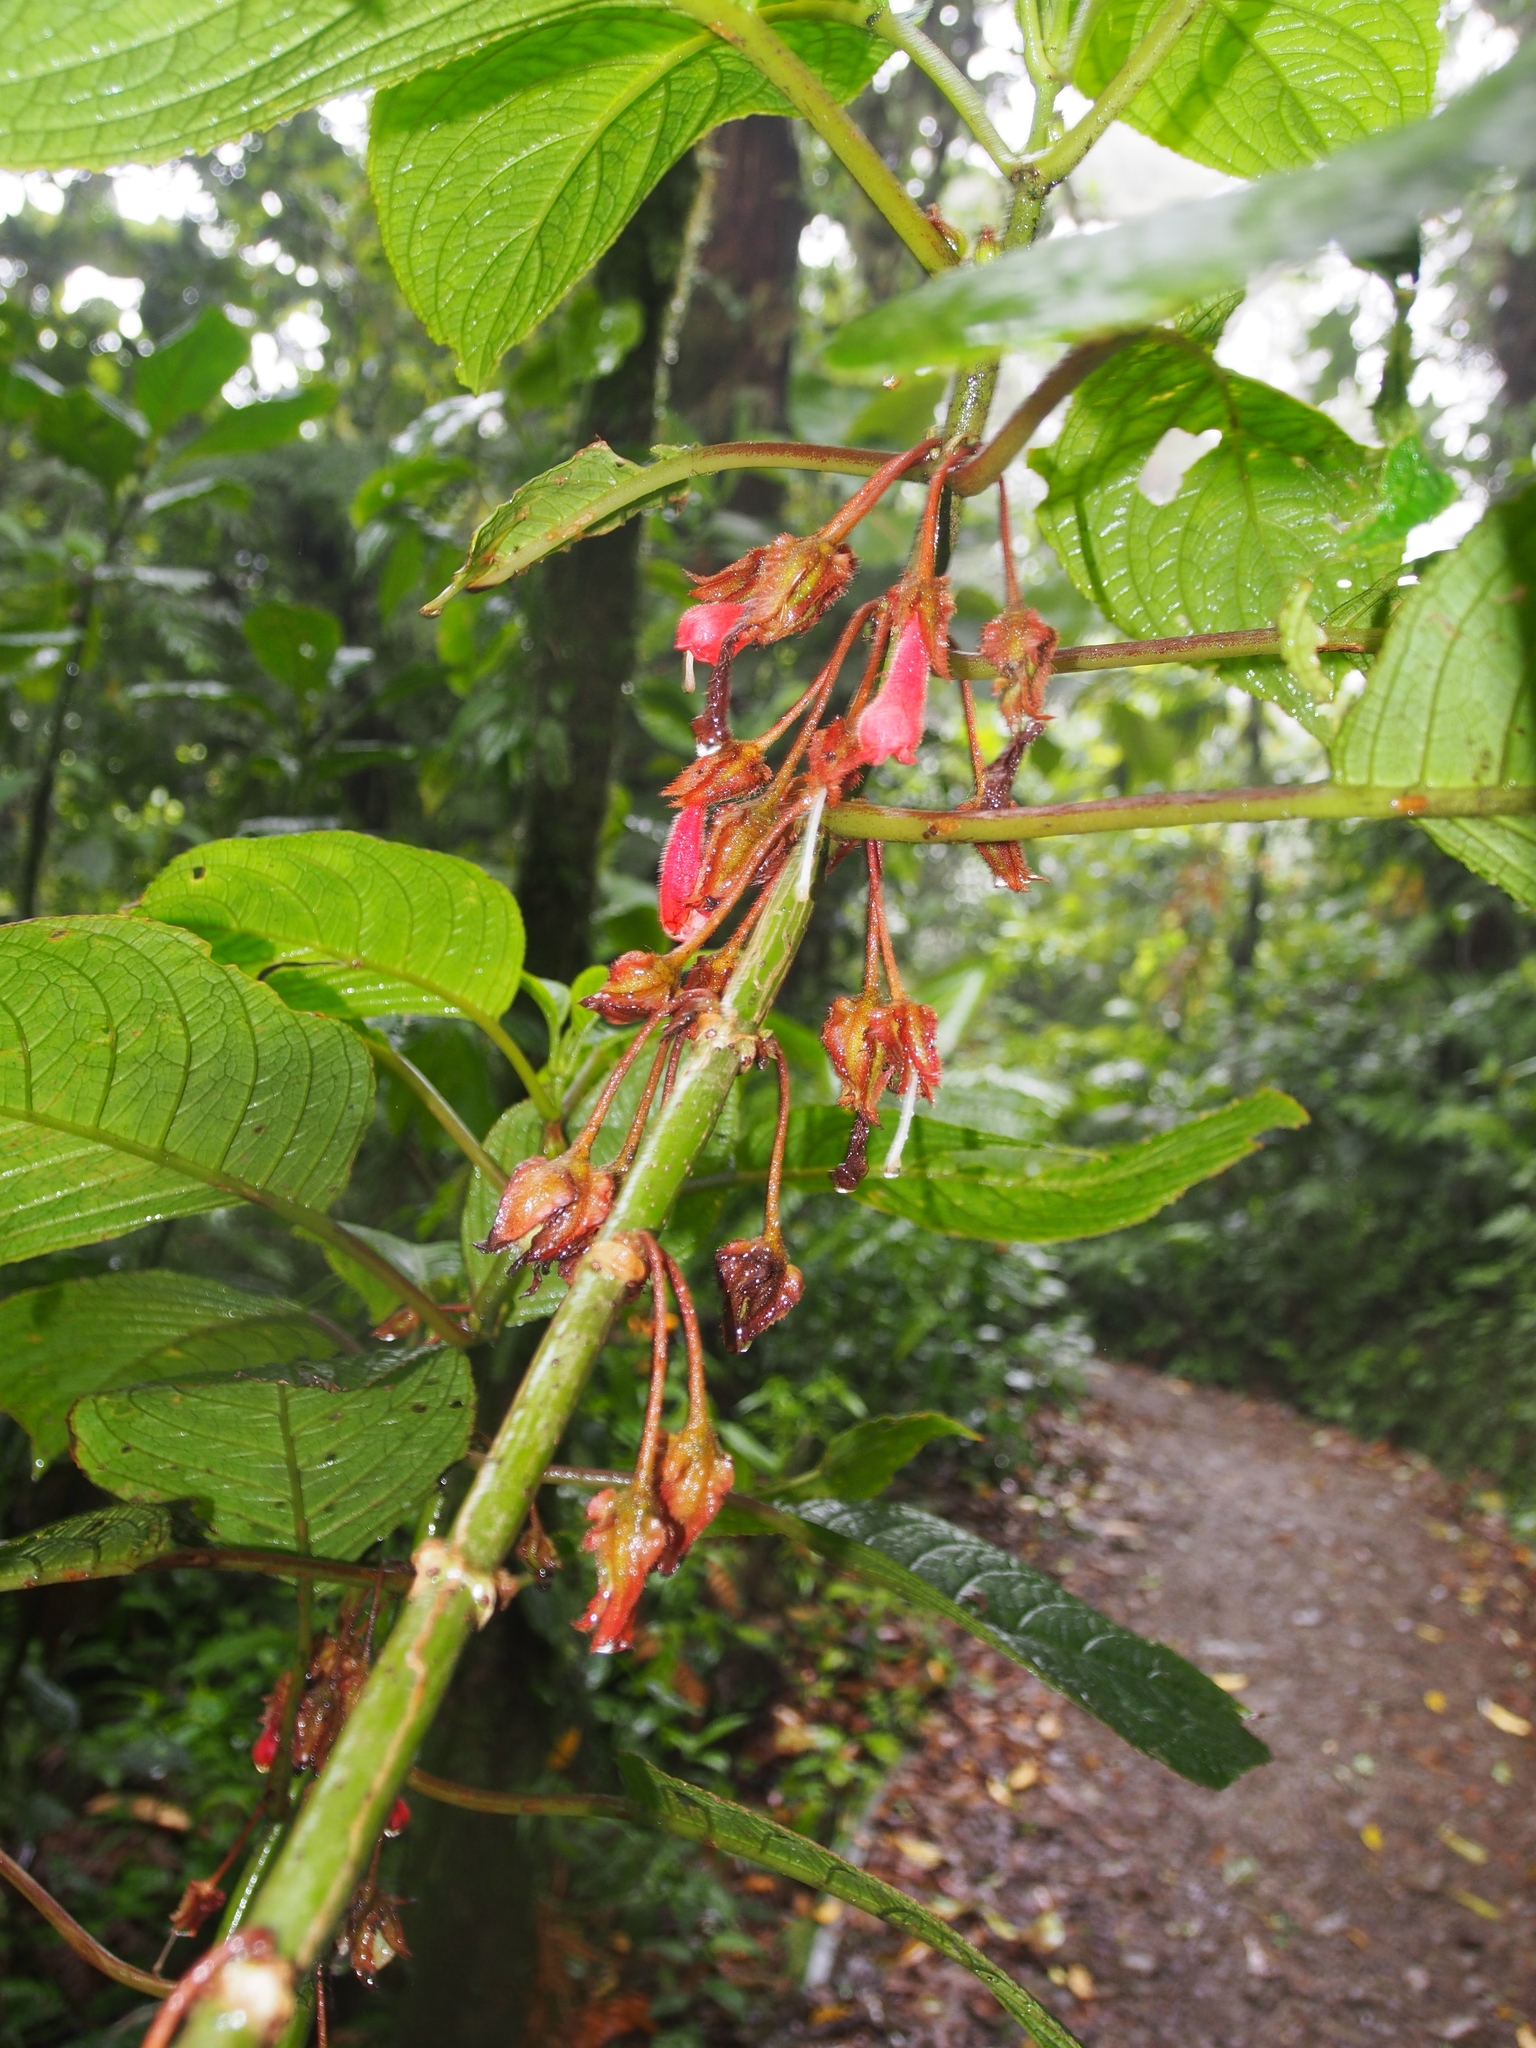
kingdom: Plantae
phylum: Tracheophyta
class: Magnoliopsida
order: Lamiales
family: Gesneriaceae
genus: Glossoloma
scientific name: Glossoloma tetragonum
